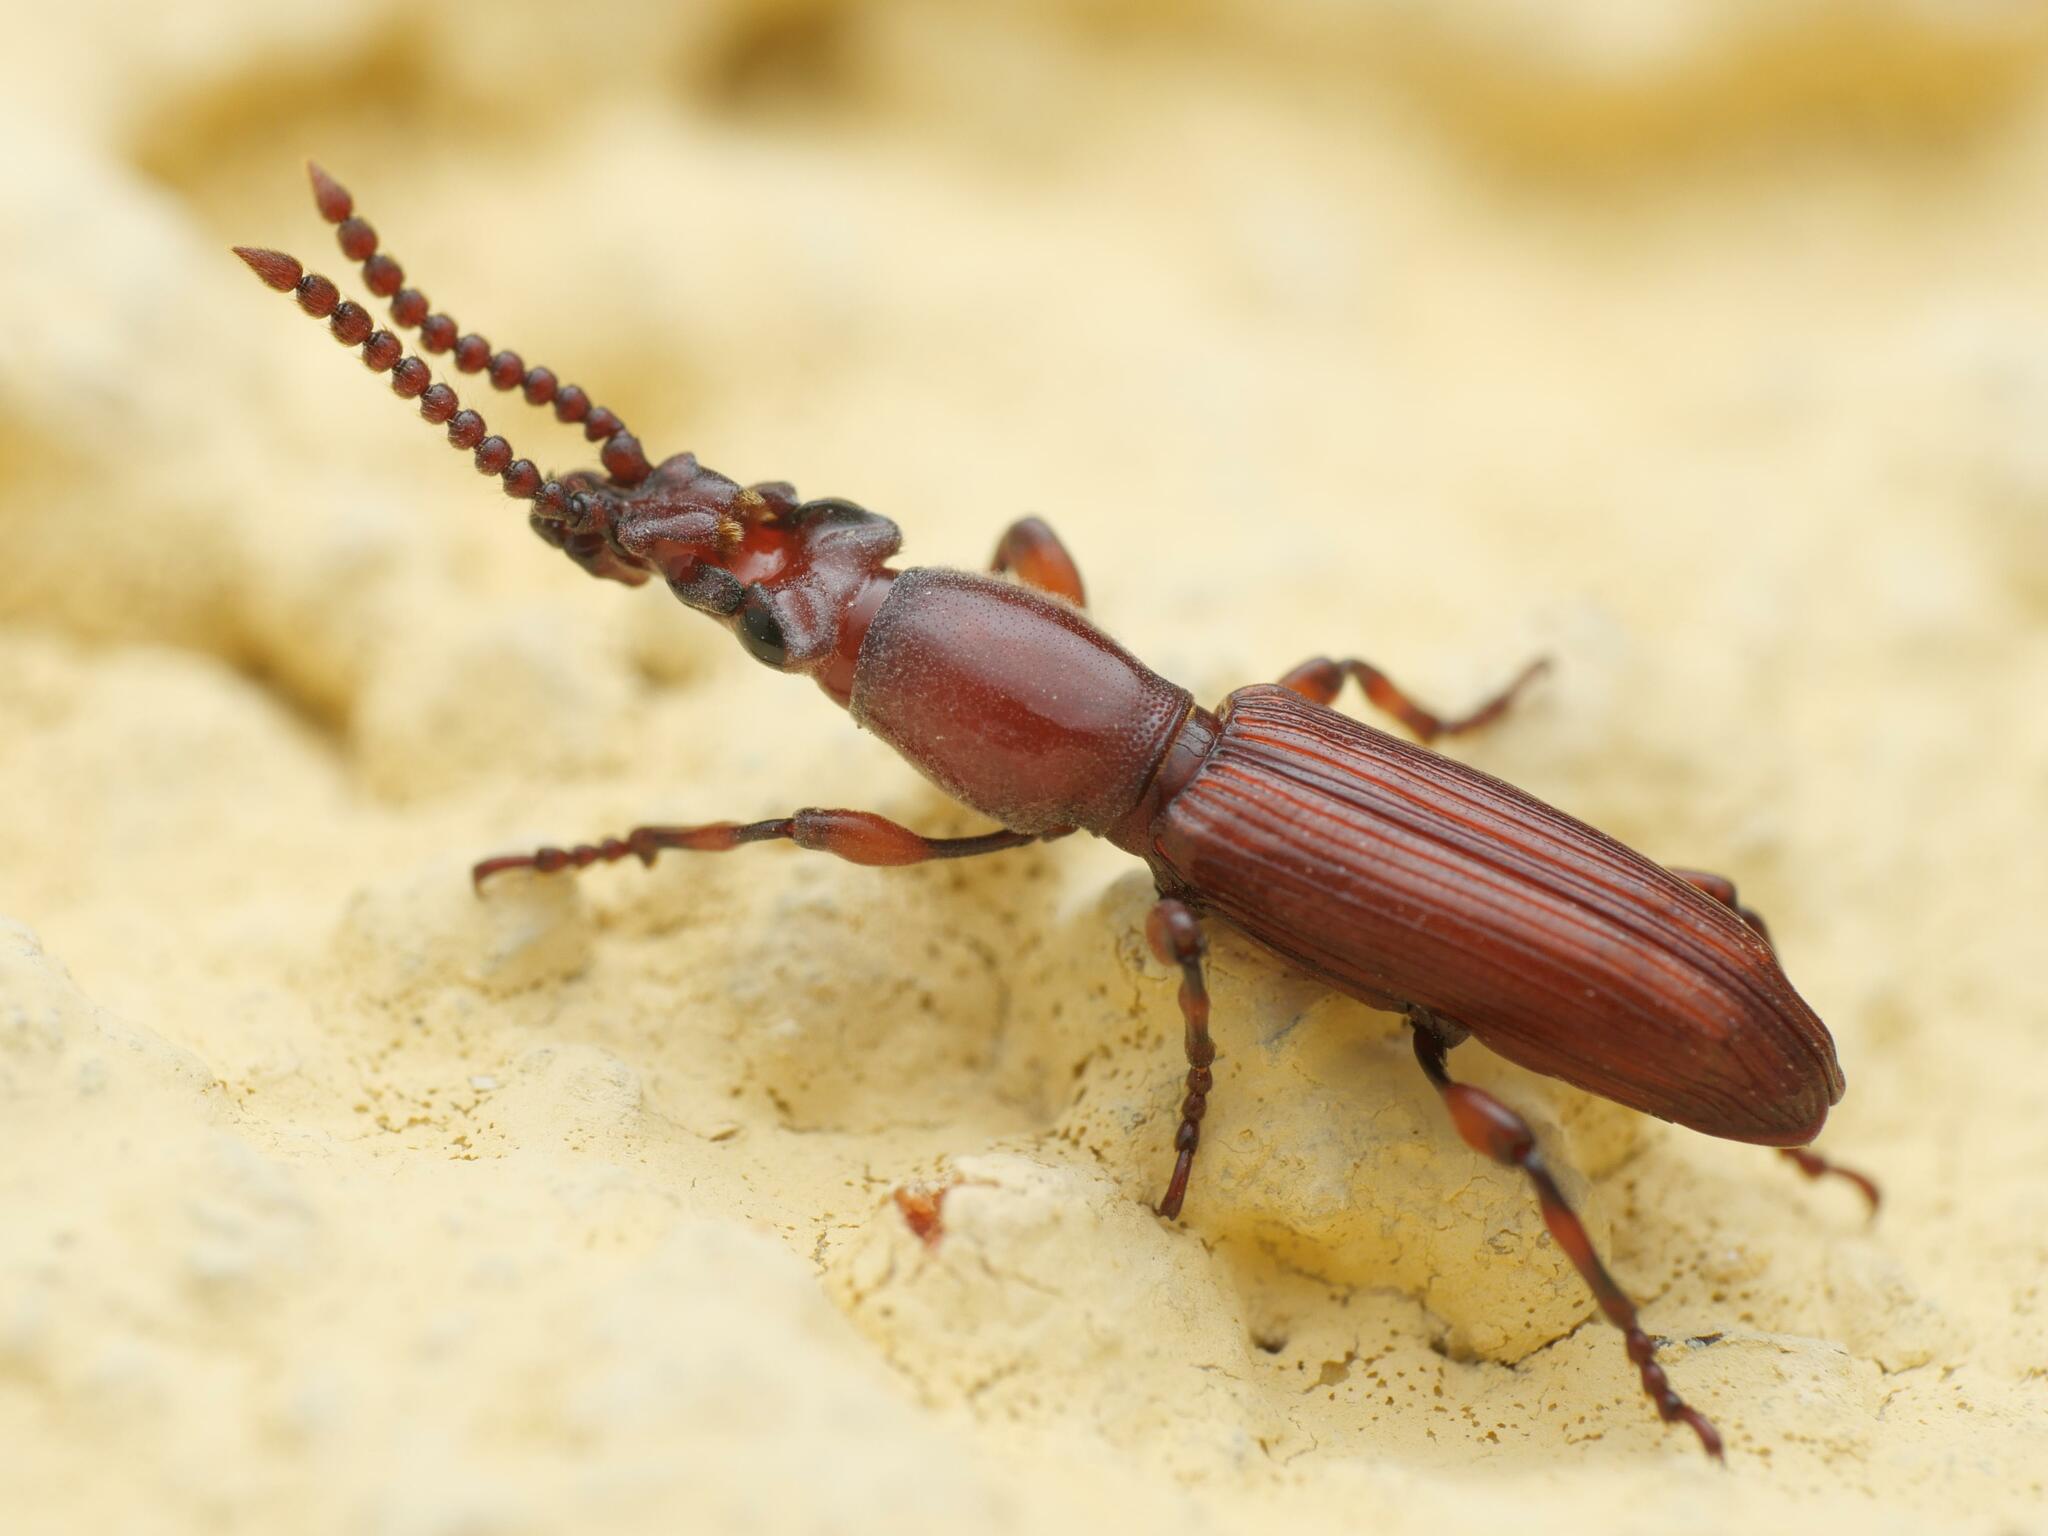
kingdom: Animalia
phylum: Arthropoda
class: Insecta
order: Coleoptera
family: Brentidae
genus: Amorphocephala
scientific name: Amorphocephala coronata
